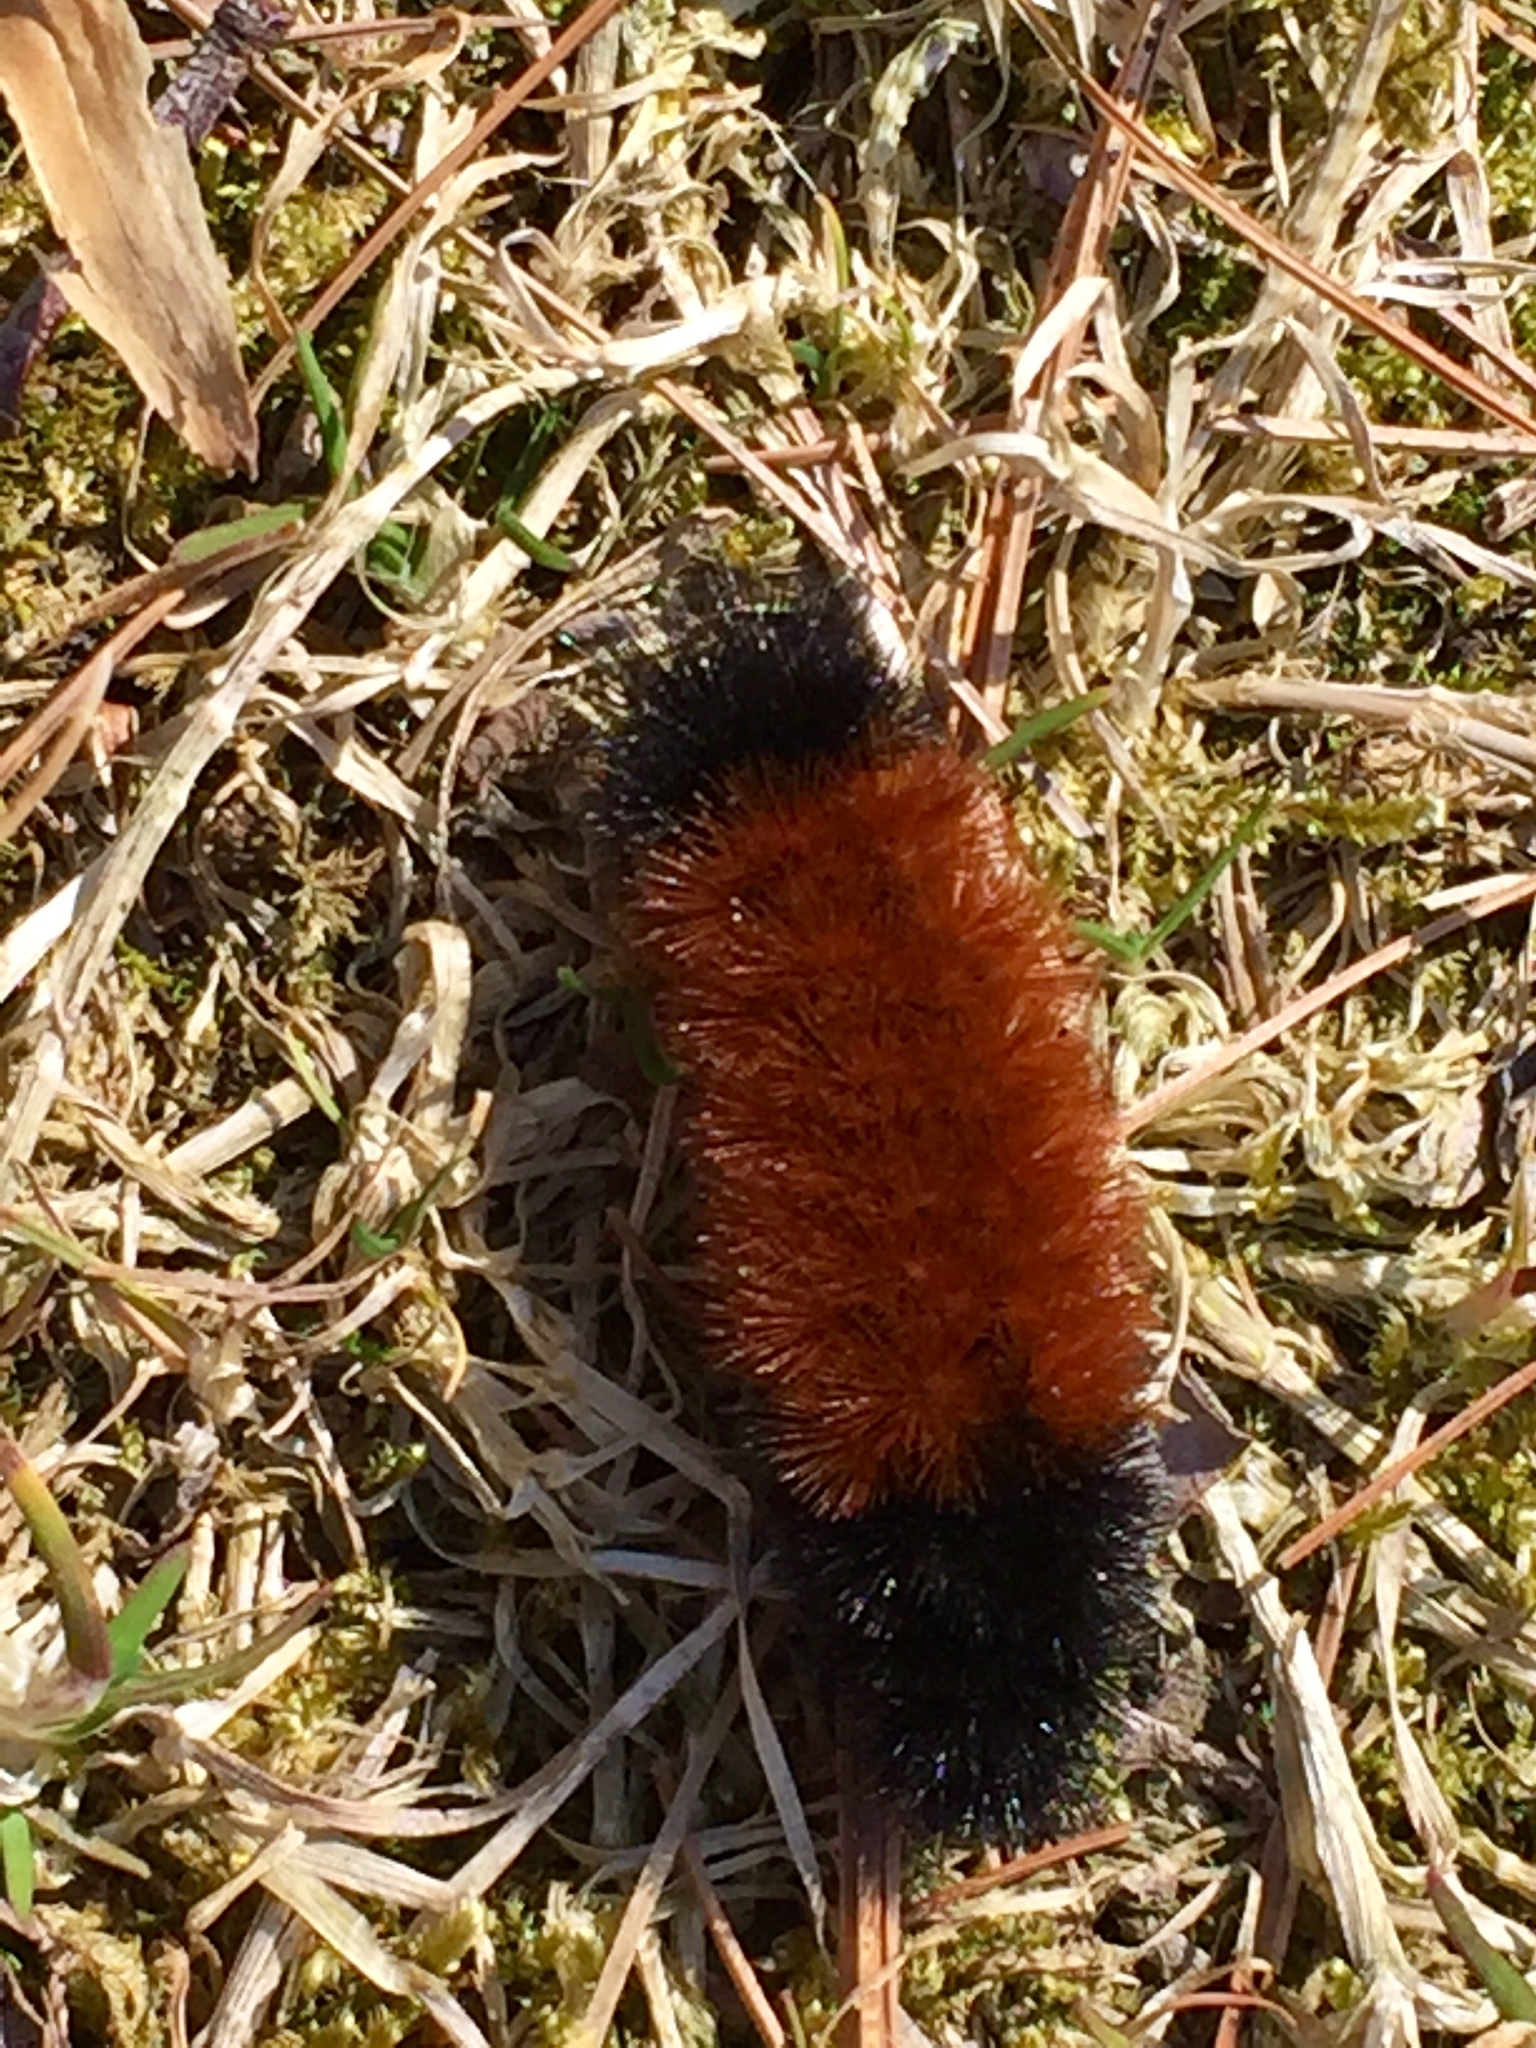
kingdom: Animalia
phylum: Arthropoda
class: Insecta
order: Lepidoptera
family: Erebidae
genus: Pyrrharctia
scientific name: Pyrrharctia isabella
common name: Isabella tiger moth
